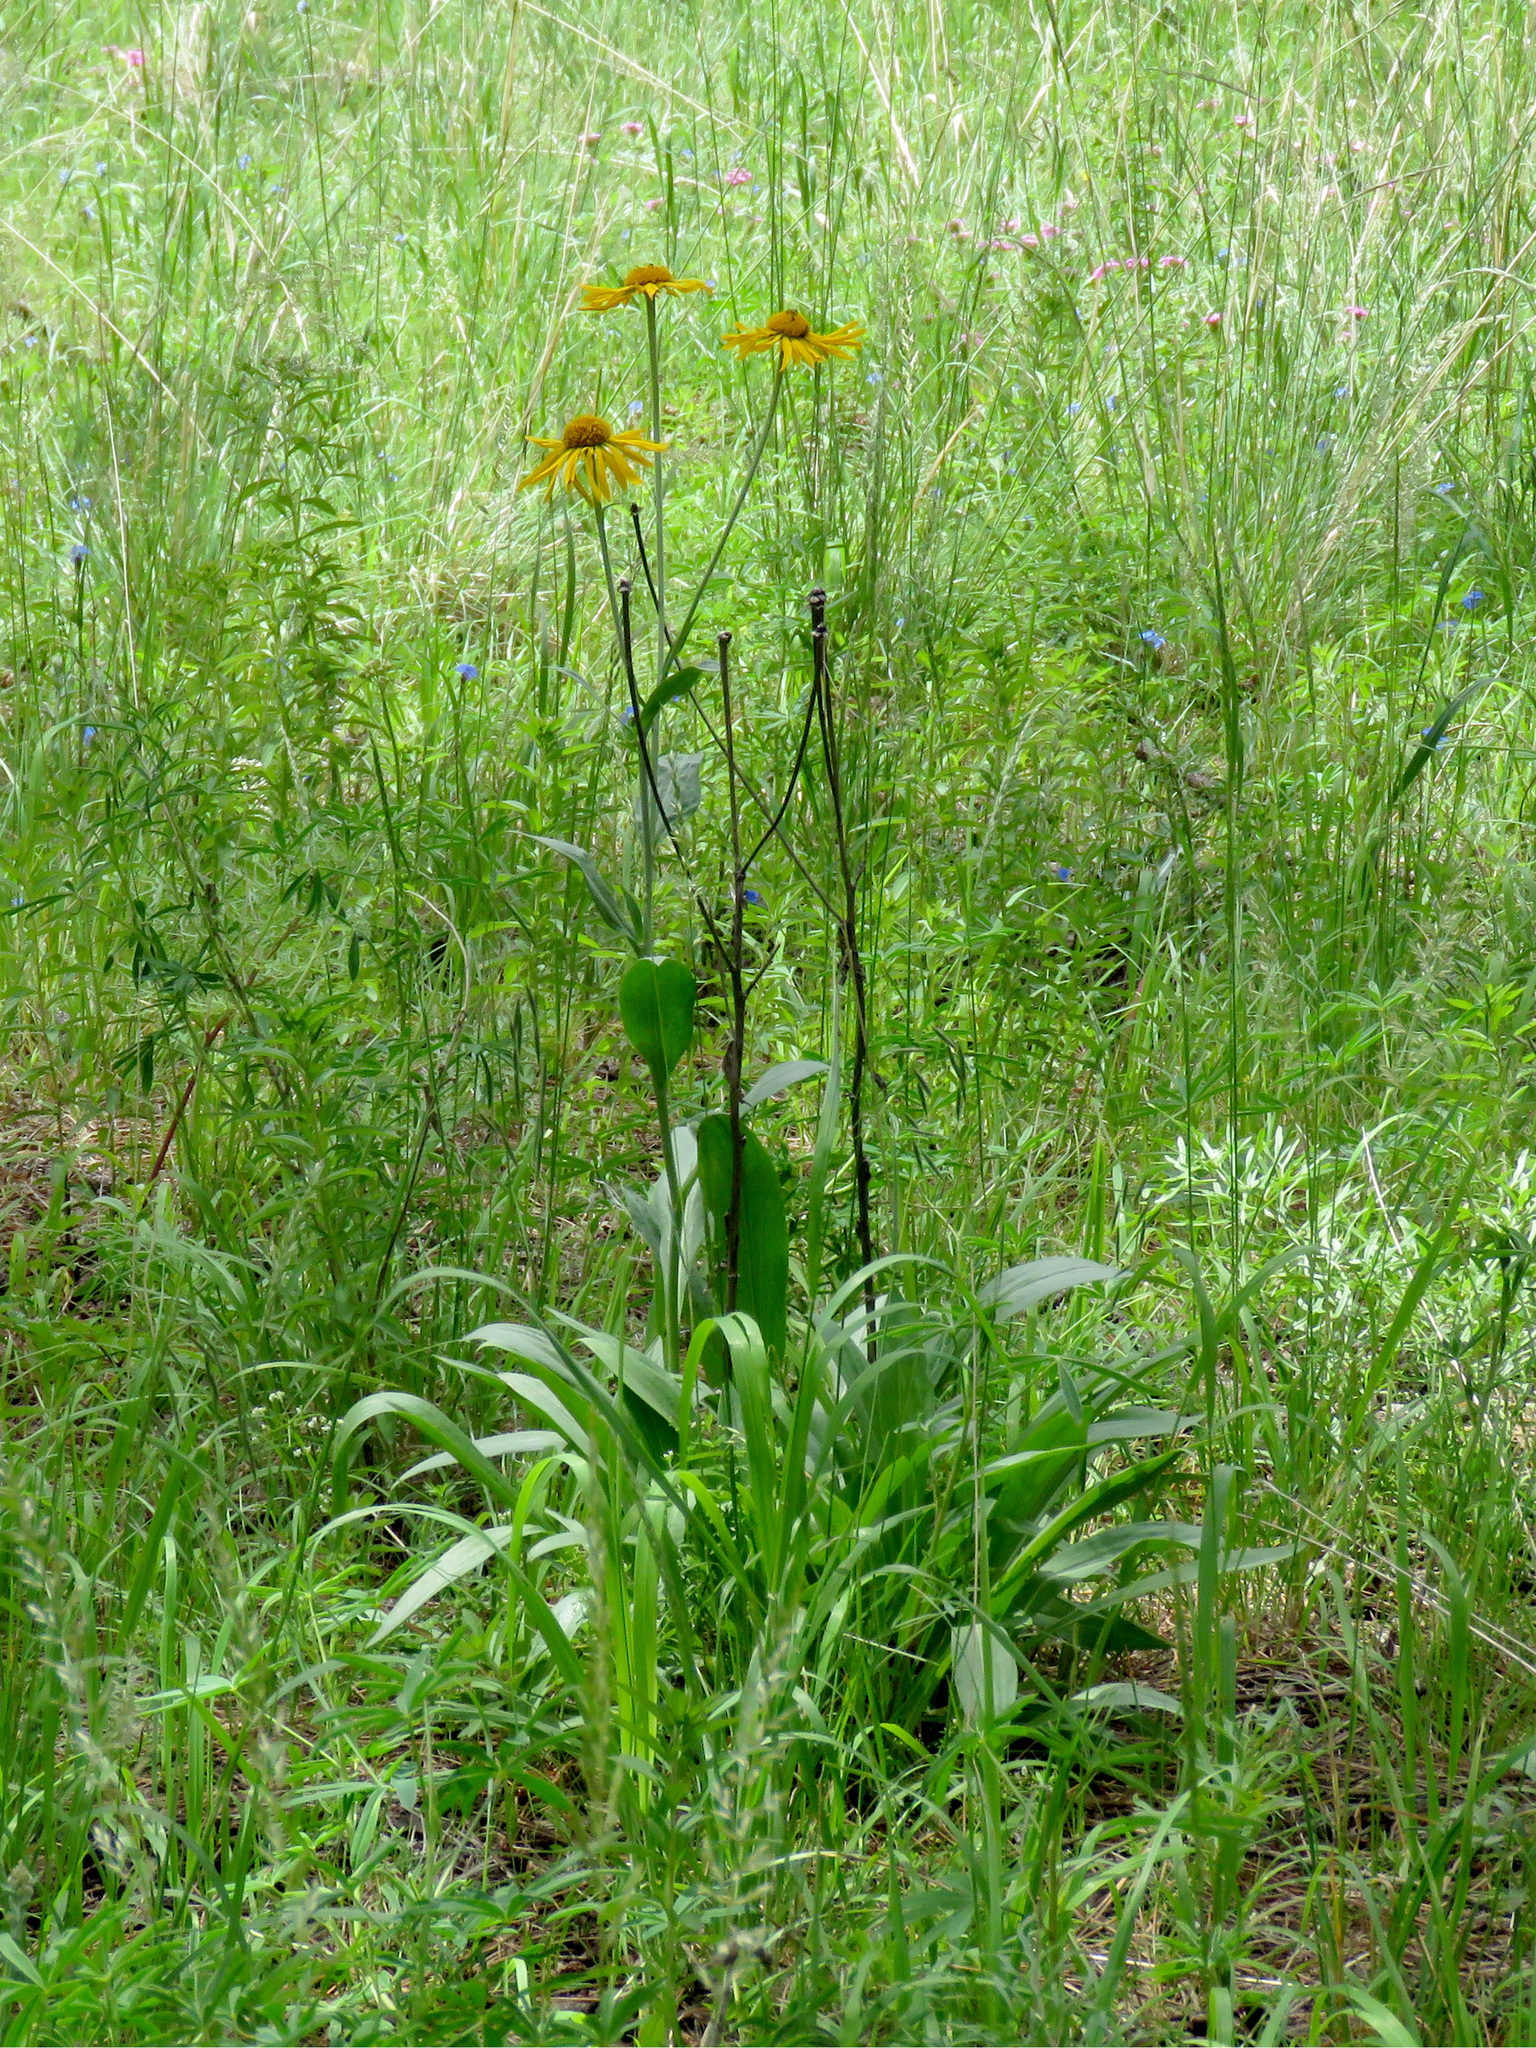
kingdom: Plantae
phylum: Tracheophyta
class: Magnoliopsida
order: Asterales
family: Asteraceae
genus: Hymenoxys
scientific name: Hymenoxys hoopesii
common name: Orange-sneezeweed
